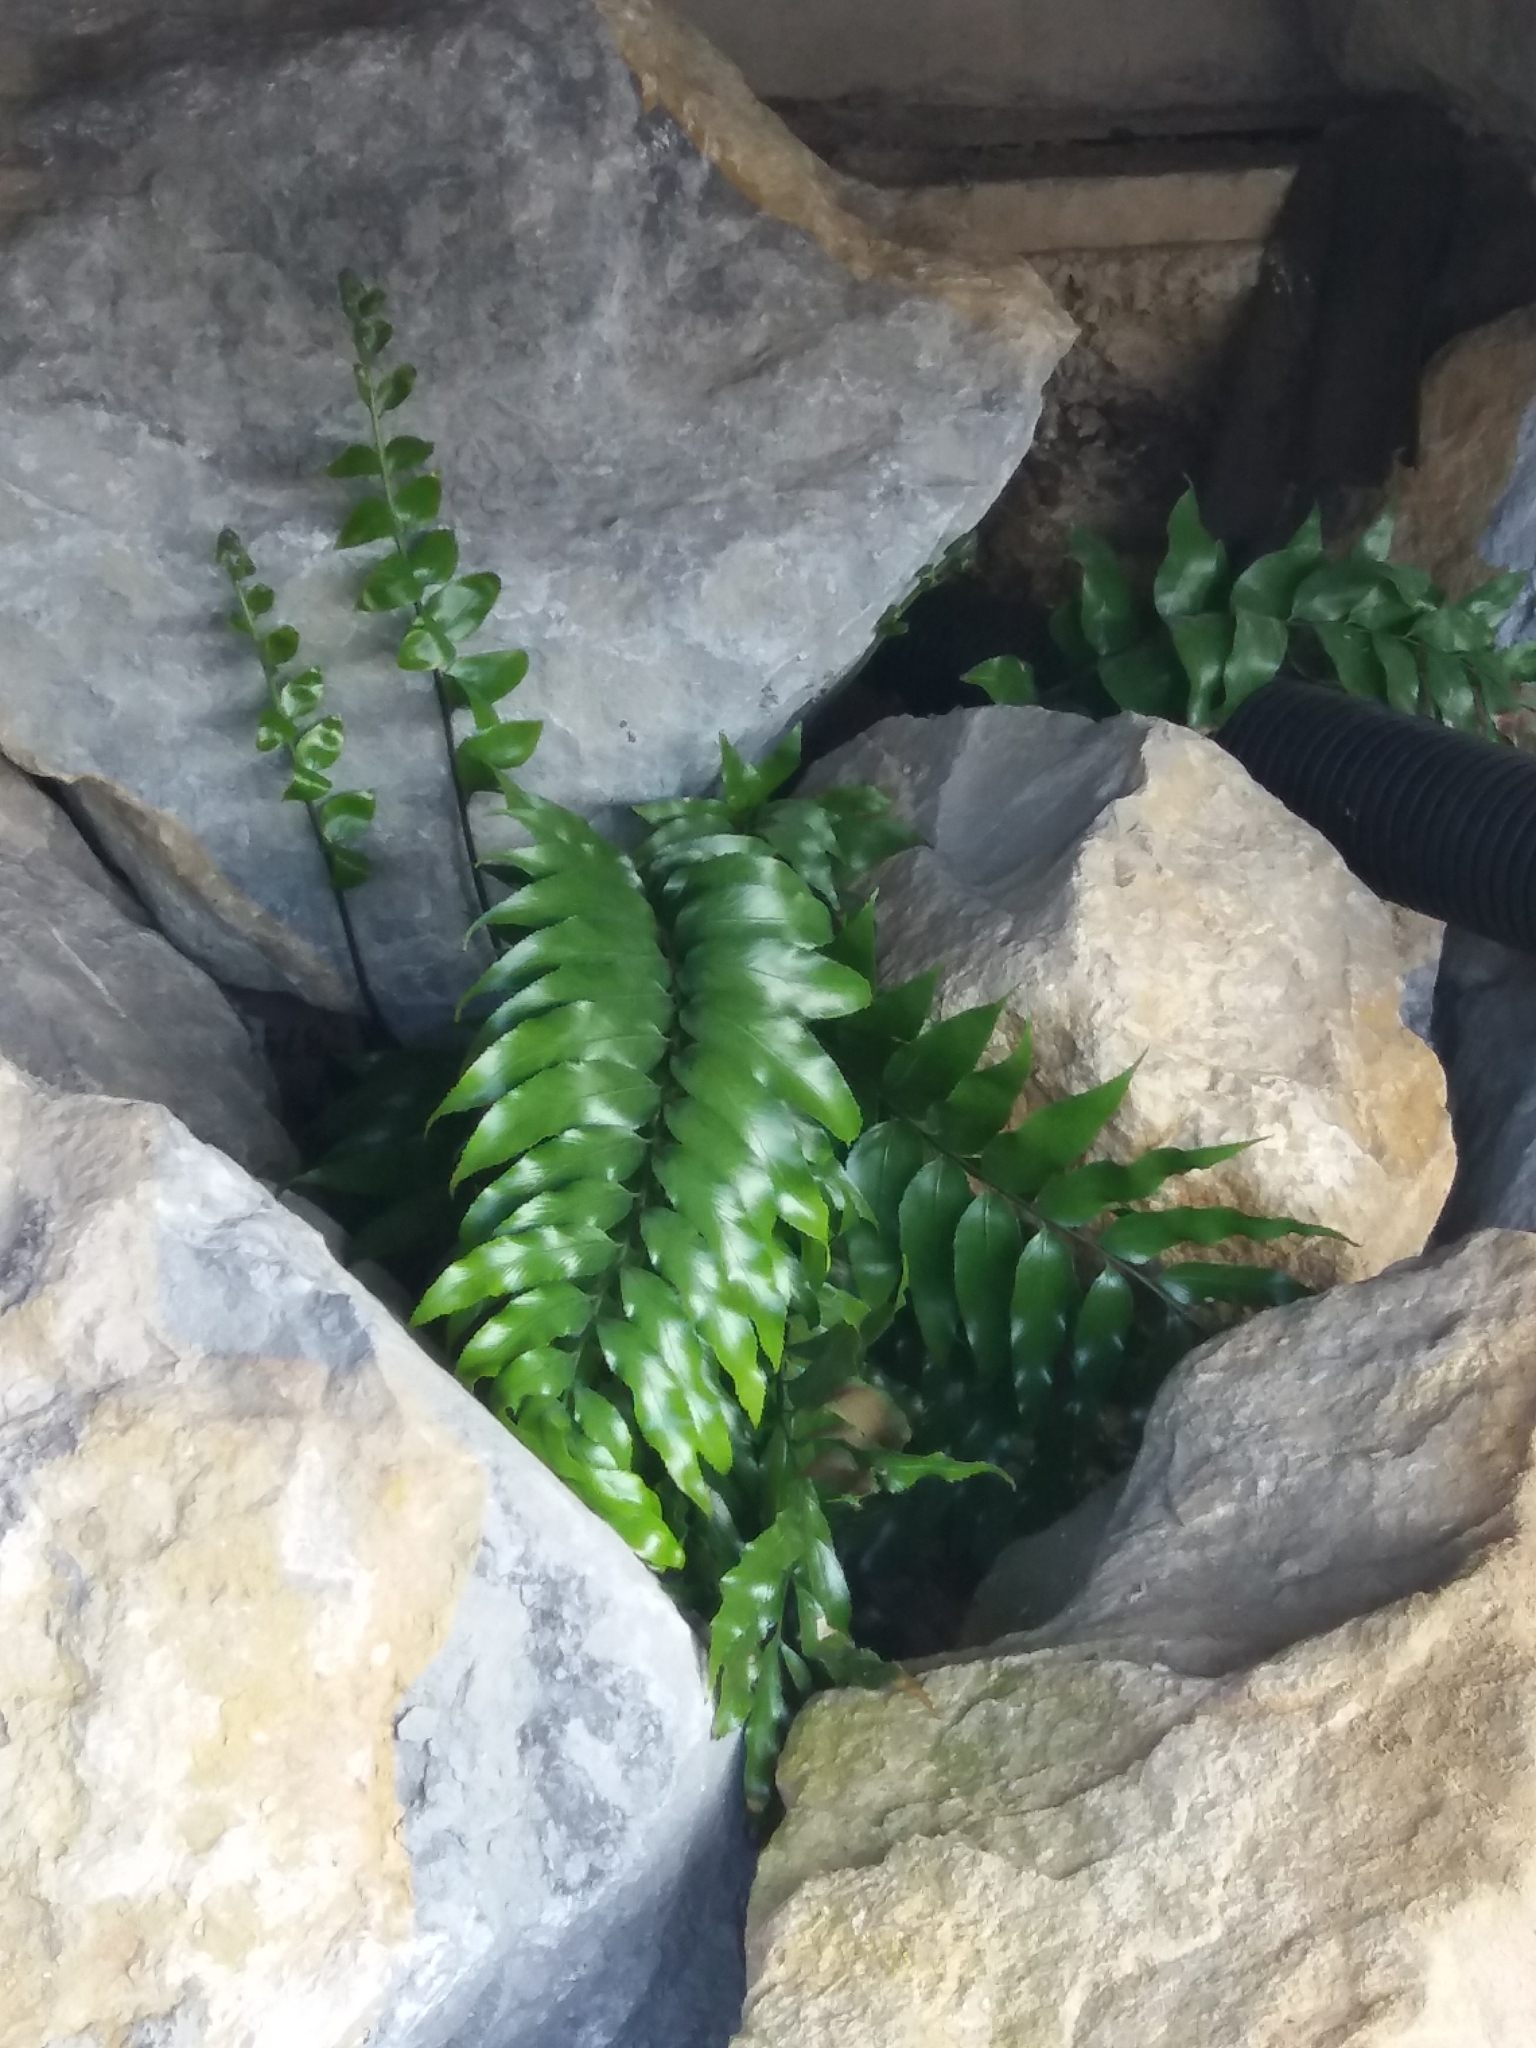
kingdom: Plantae
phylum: Tracheophyta
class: Polypodiopsida
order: Polypodiales
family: Aspleniaceae
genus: Asplenium
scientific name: Asplenium oblongifolium
